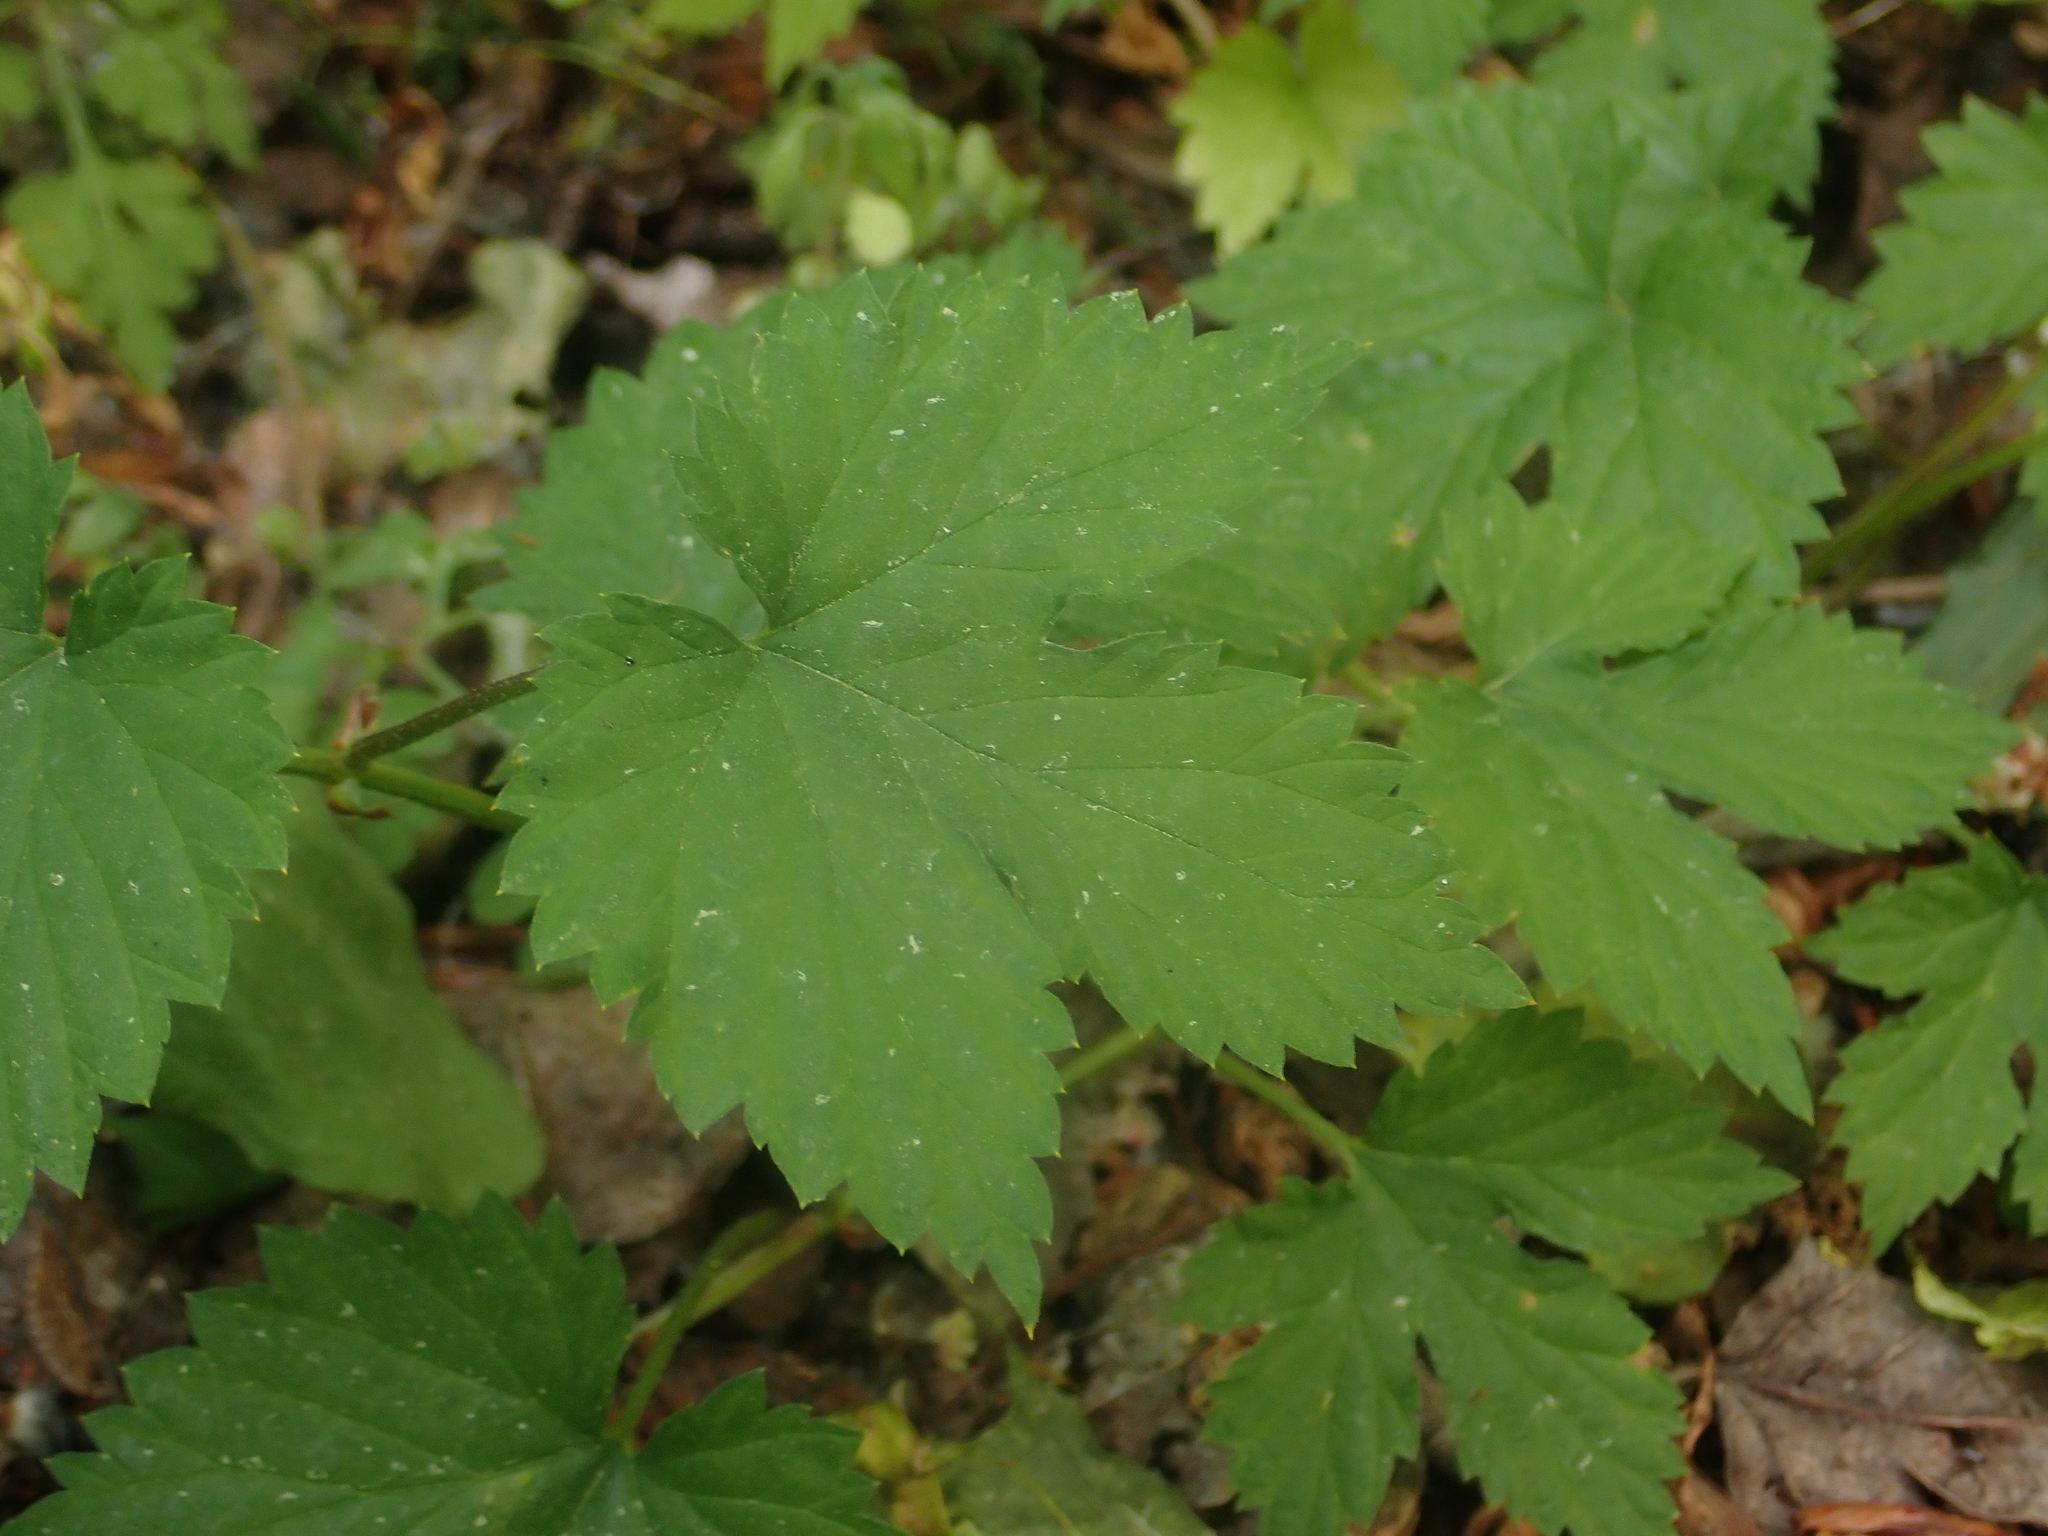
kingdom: Plantae
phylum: Tracheophyta
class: Magnoliopsida
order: Rosales
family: Cannabaceae
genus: Humulus
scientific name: Humulus lupulus
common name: Hop
